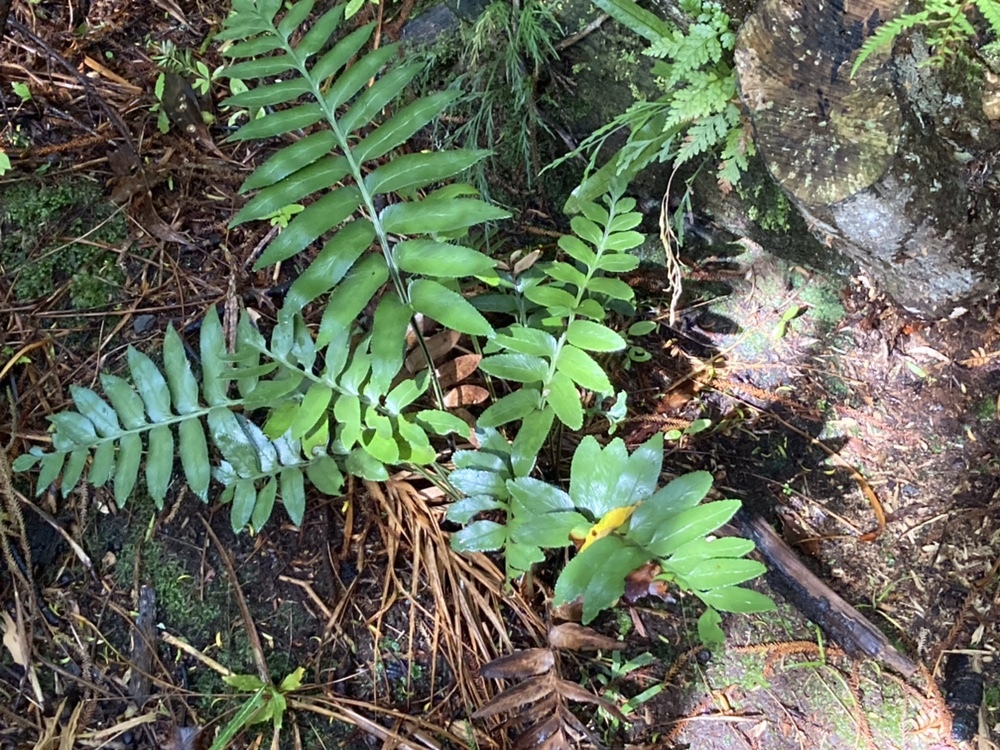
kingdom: Plantae
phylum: Tracheophyta
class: Polypodiopsida
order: Polypodiales
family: Aspleniaceae
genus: Asplenium
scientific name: Asplenium obtusatum
